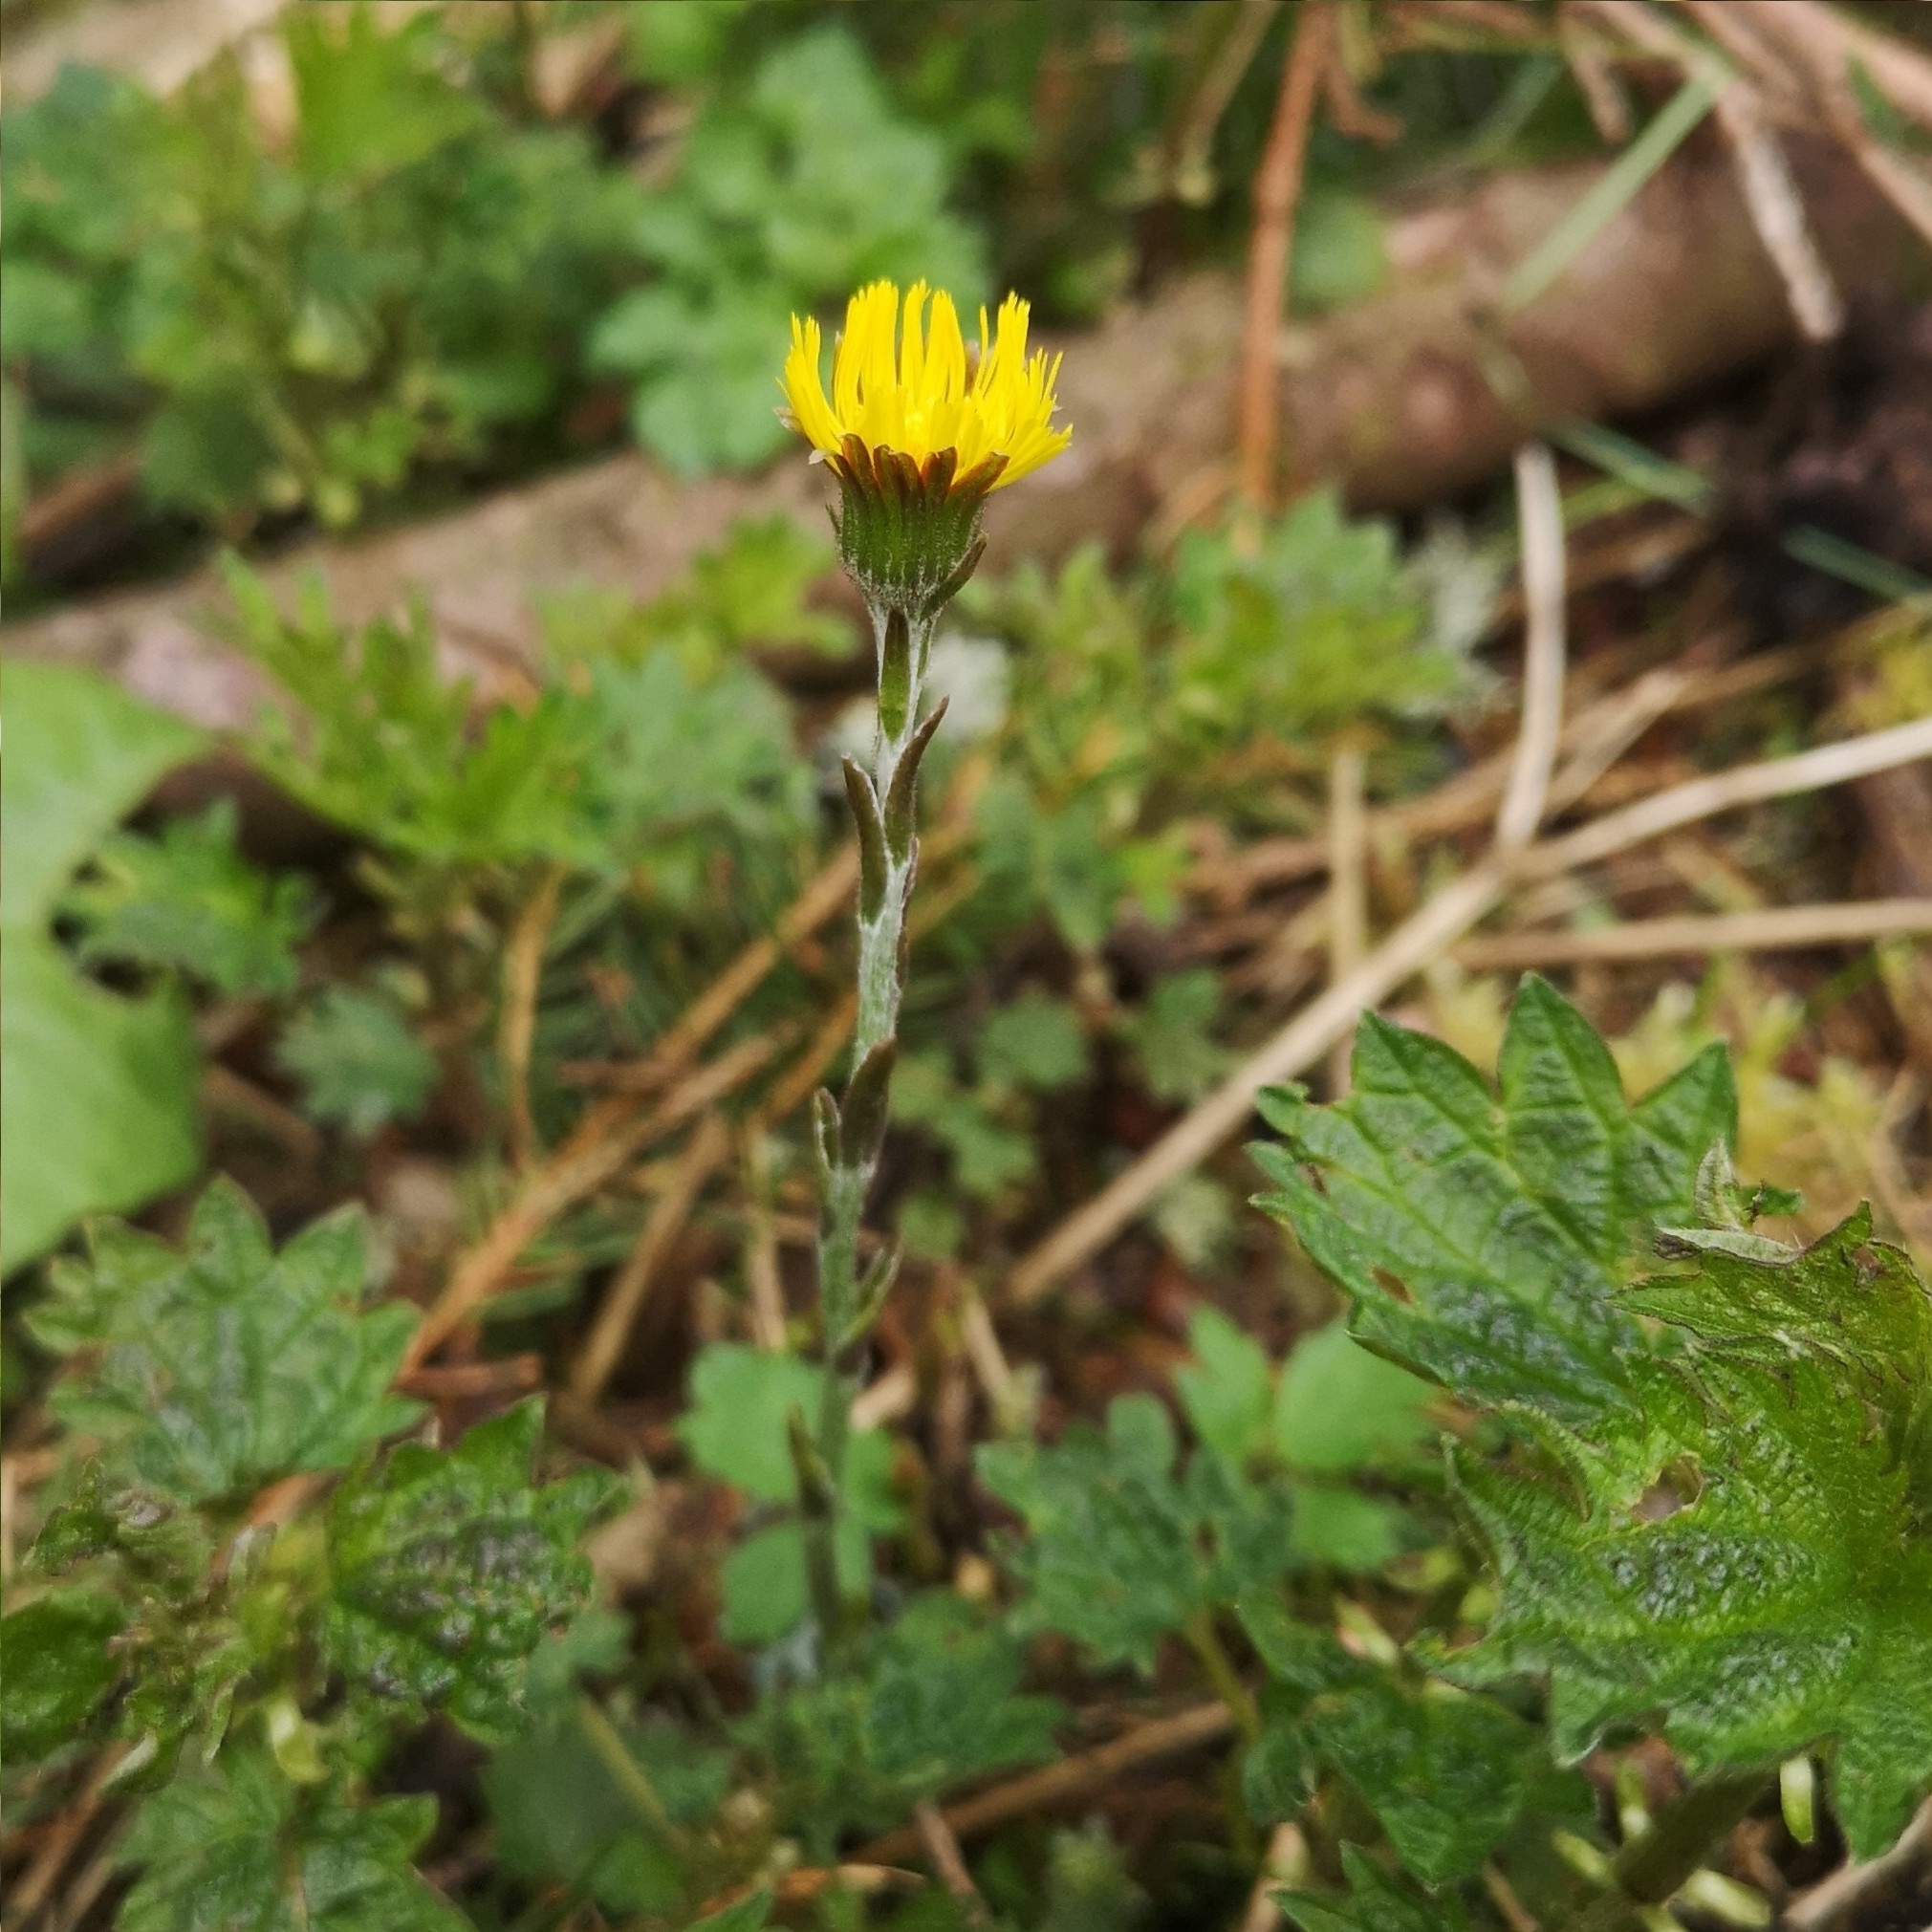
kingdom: Plantae
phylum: Tracheophyta
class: Magnoliopsida
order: Asterales
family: Asteraceae
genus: Tussilago
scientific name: Tussilago farfara
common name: Coltsfoot
